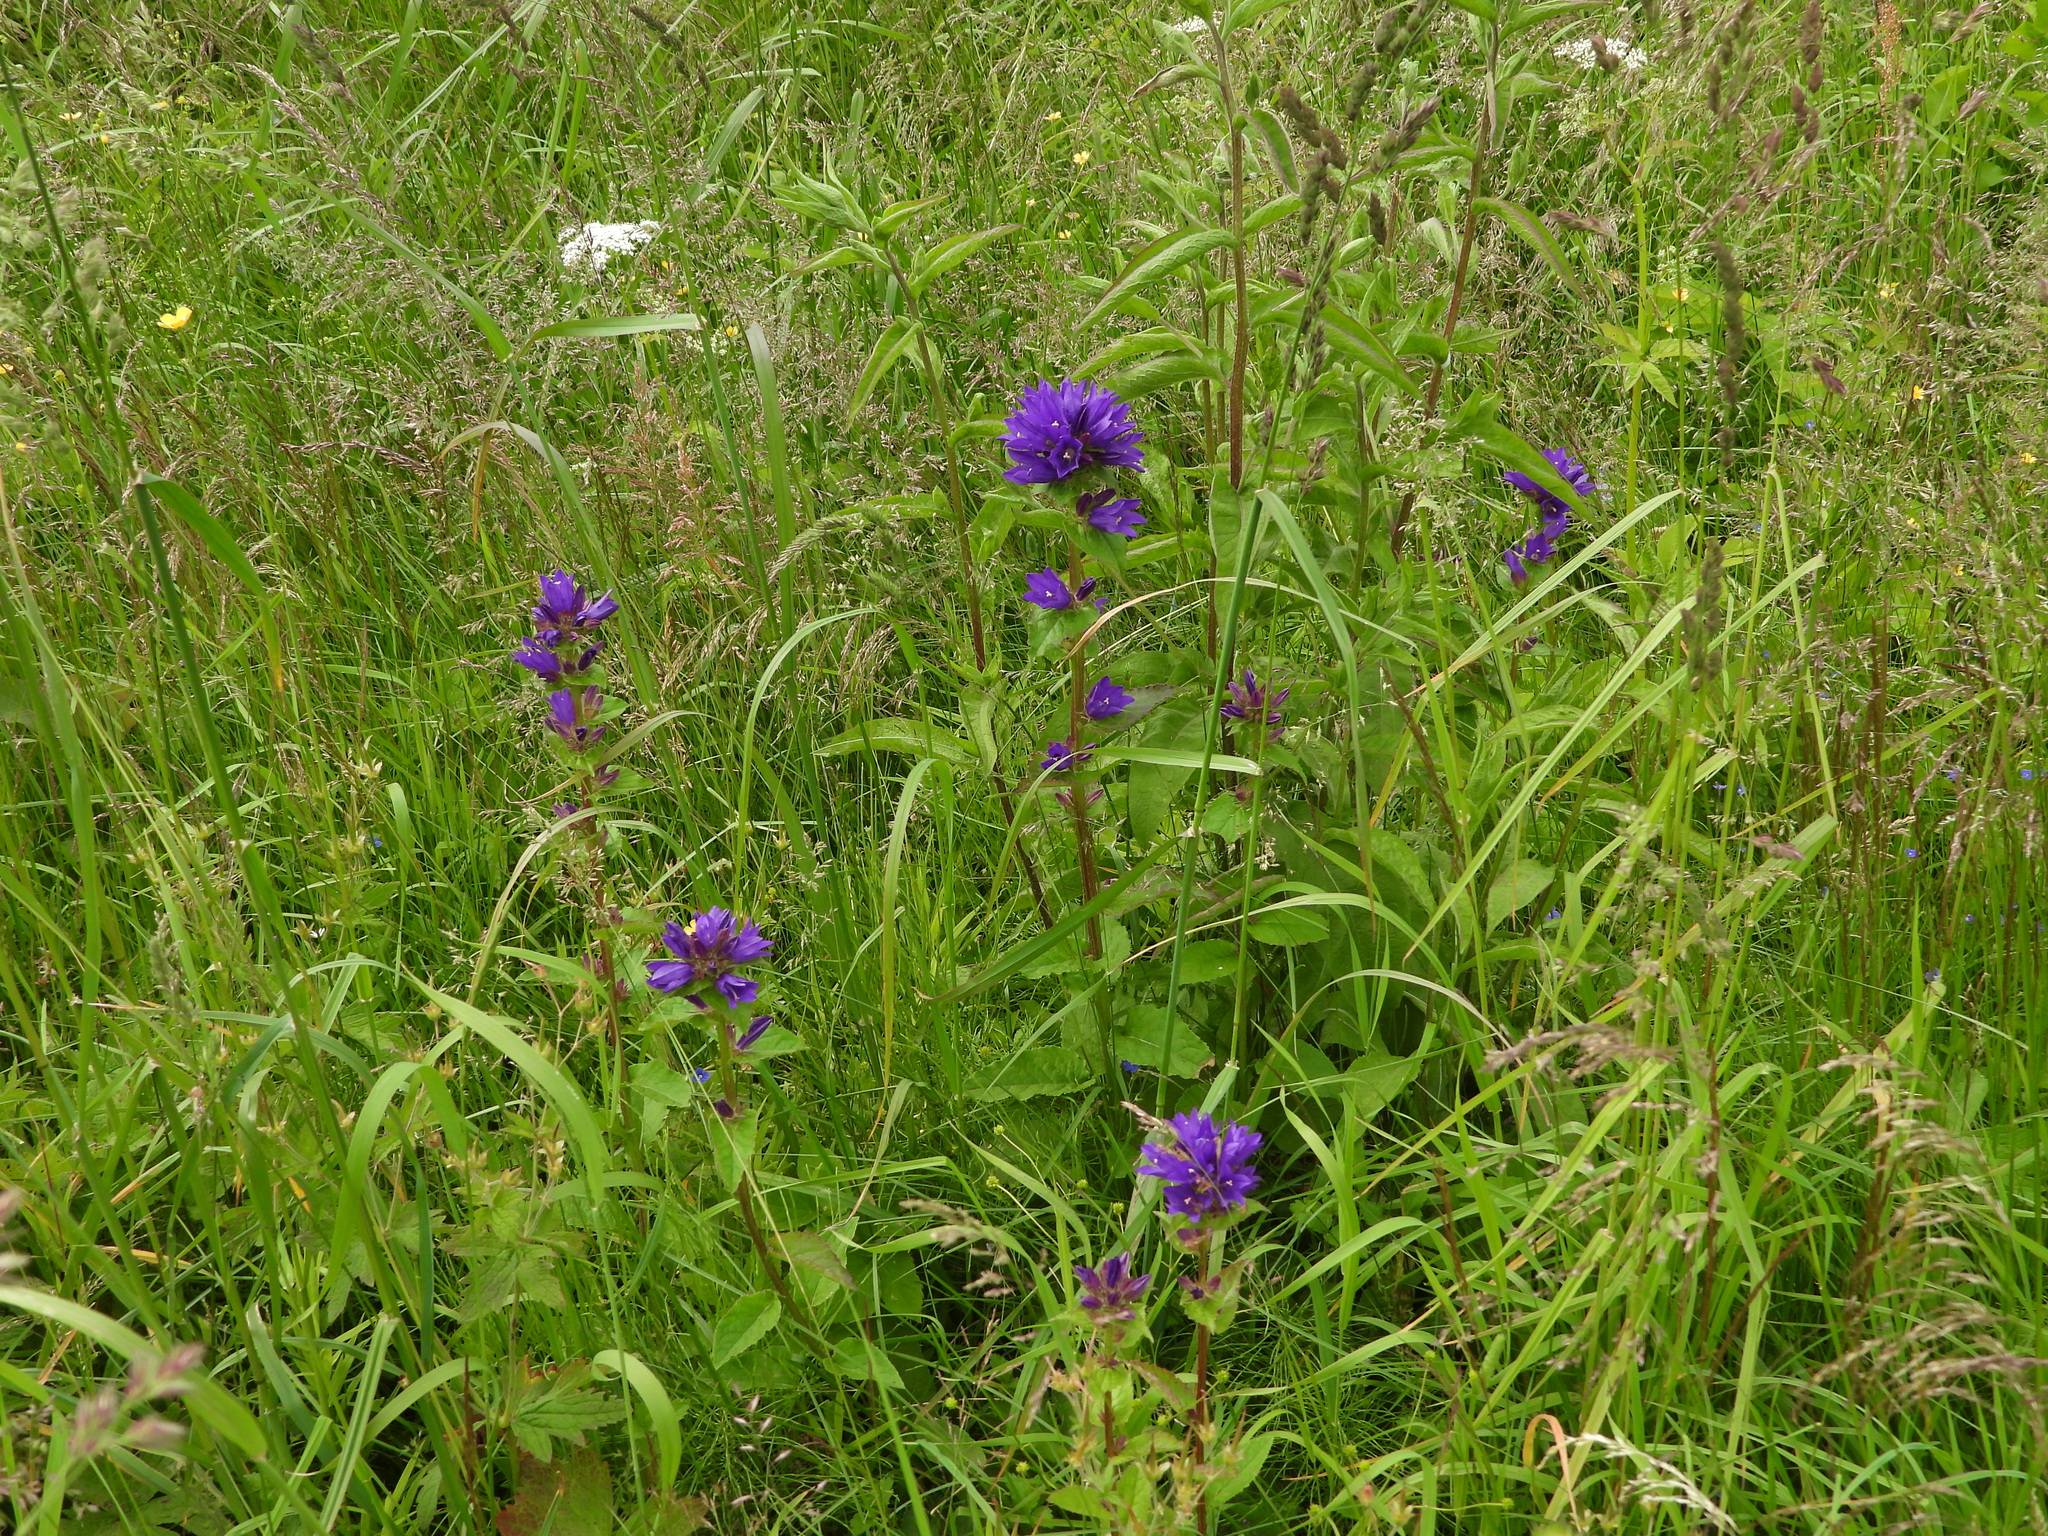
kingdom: Plantae
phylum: Tracheophyta
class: Magnoliopsida
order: Asterales
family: Campanulaceae
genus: Campanula
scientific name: Campanula glomerata
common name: Clustered bellflower
